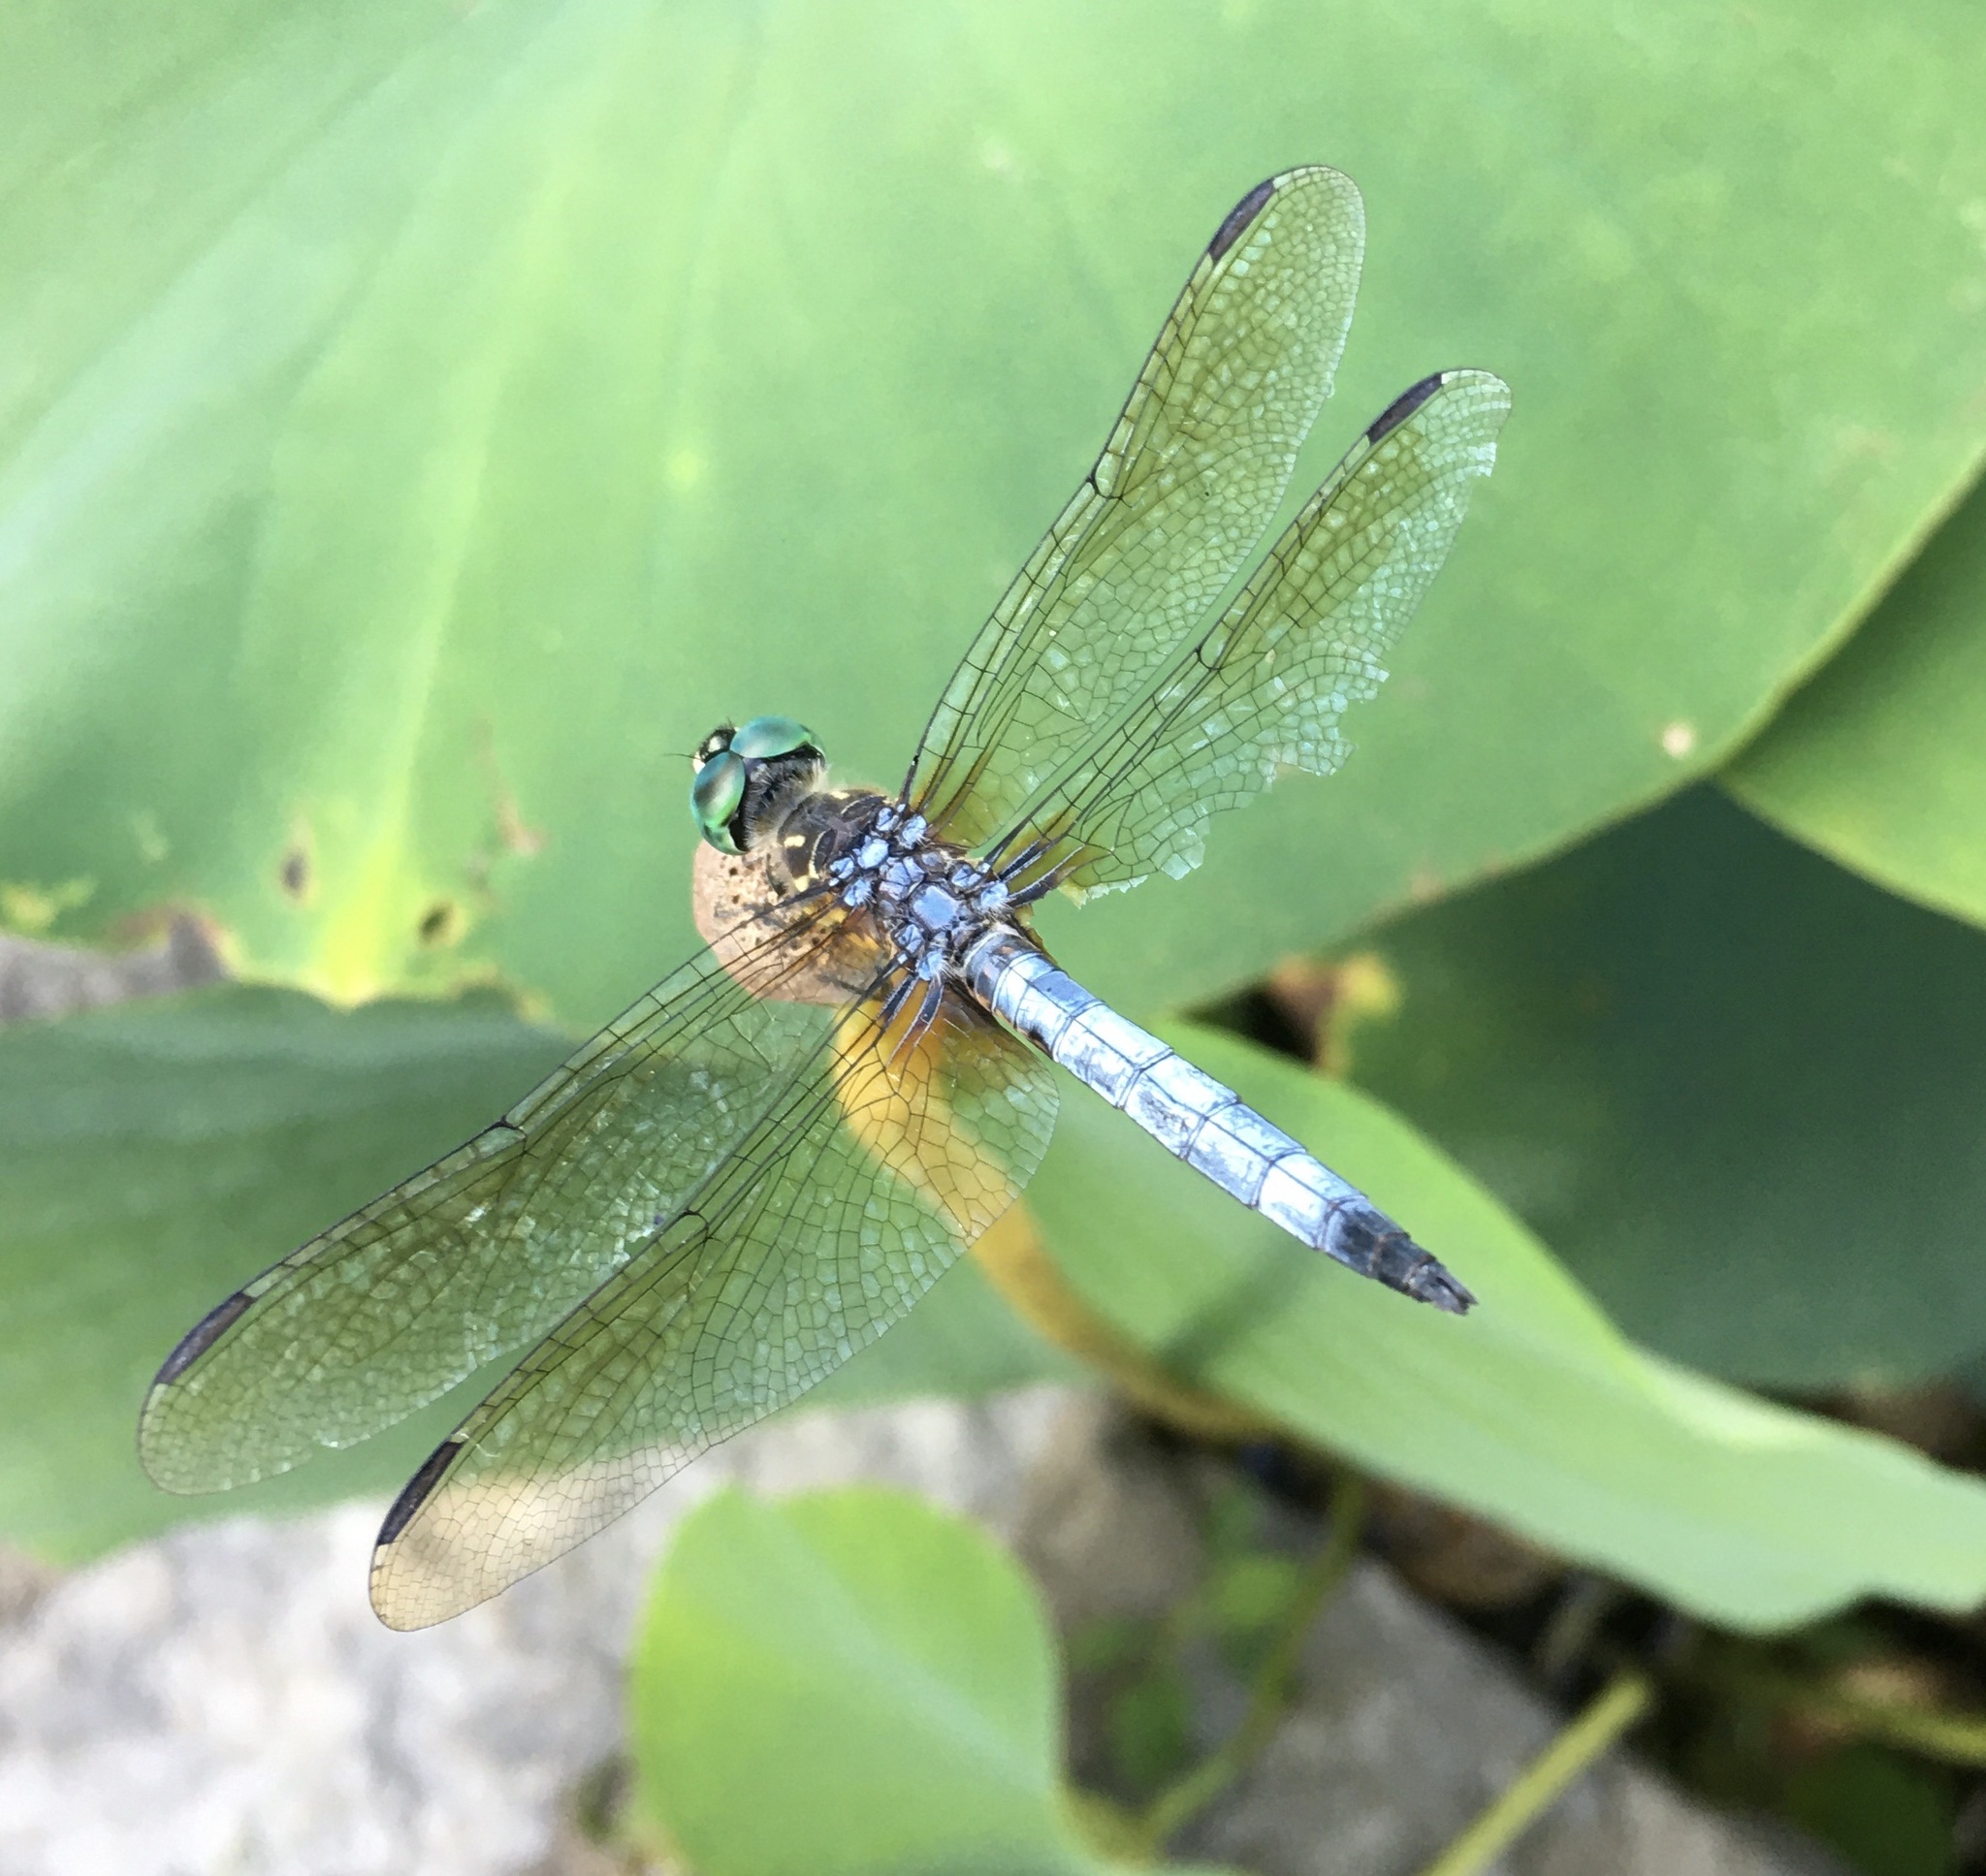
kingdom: Animalia
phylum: Arthropoda
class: Insecta
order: Odonata
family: Libellulidae
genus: Pachydiplax
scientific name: Pachydiplax longipennis
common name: Blue dasher
